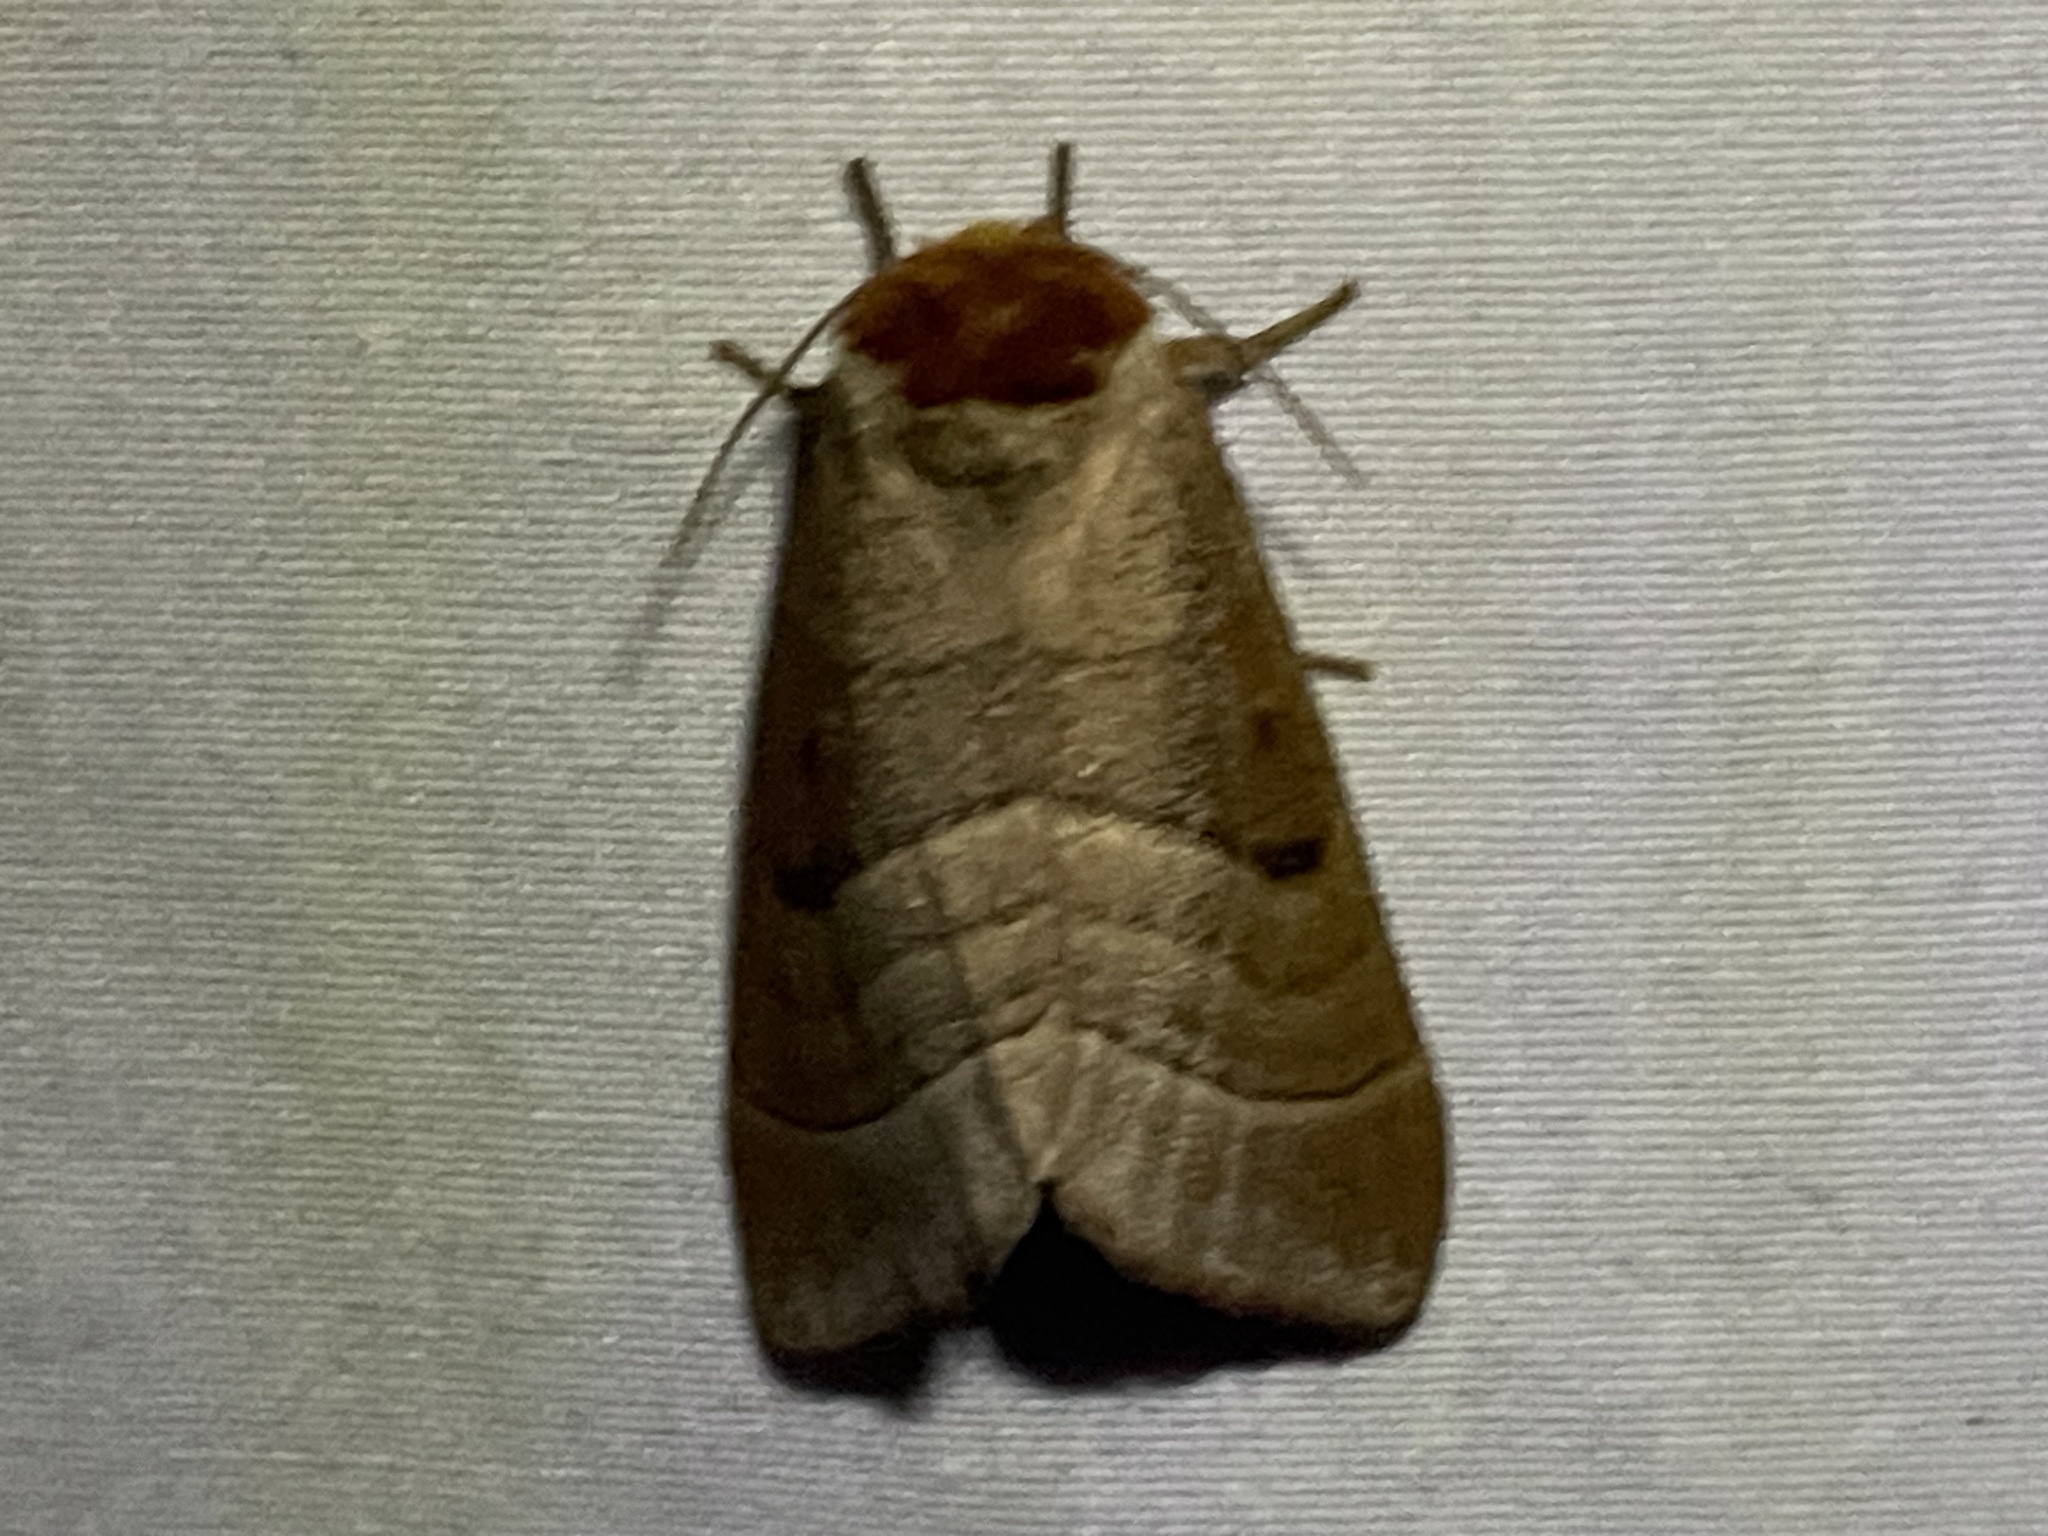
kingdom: Animalia
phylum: Arthropoda
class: Insecta
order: Lepidoptera
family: Notodontidae
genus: Datana
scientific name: Datana integerrima
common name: Walnut caterpillar
